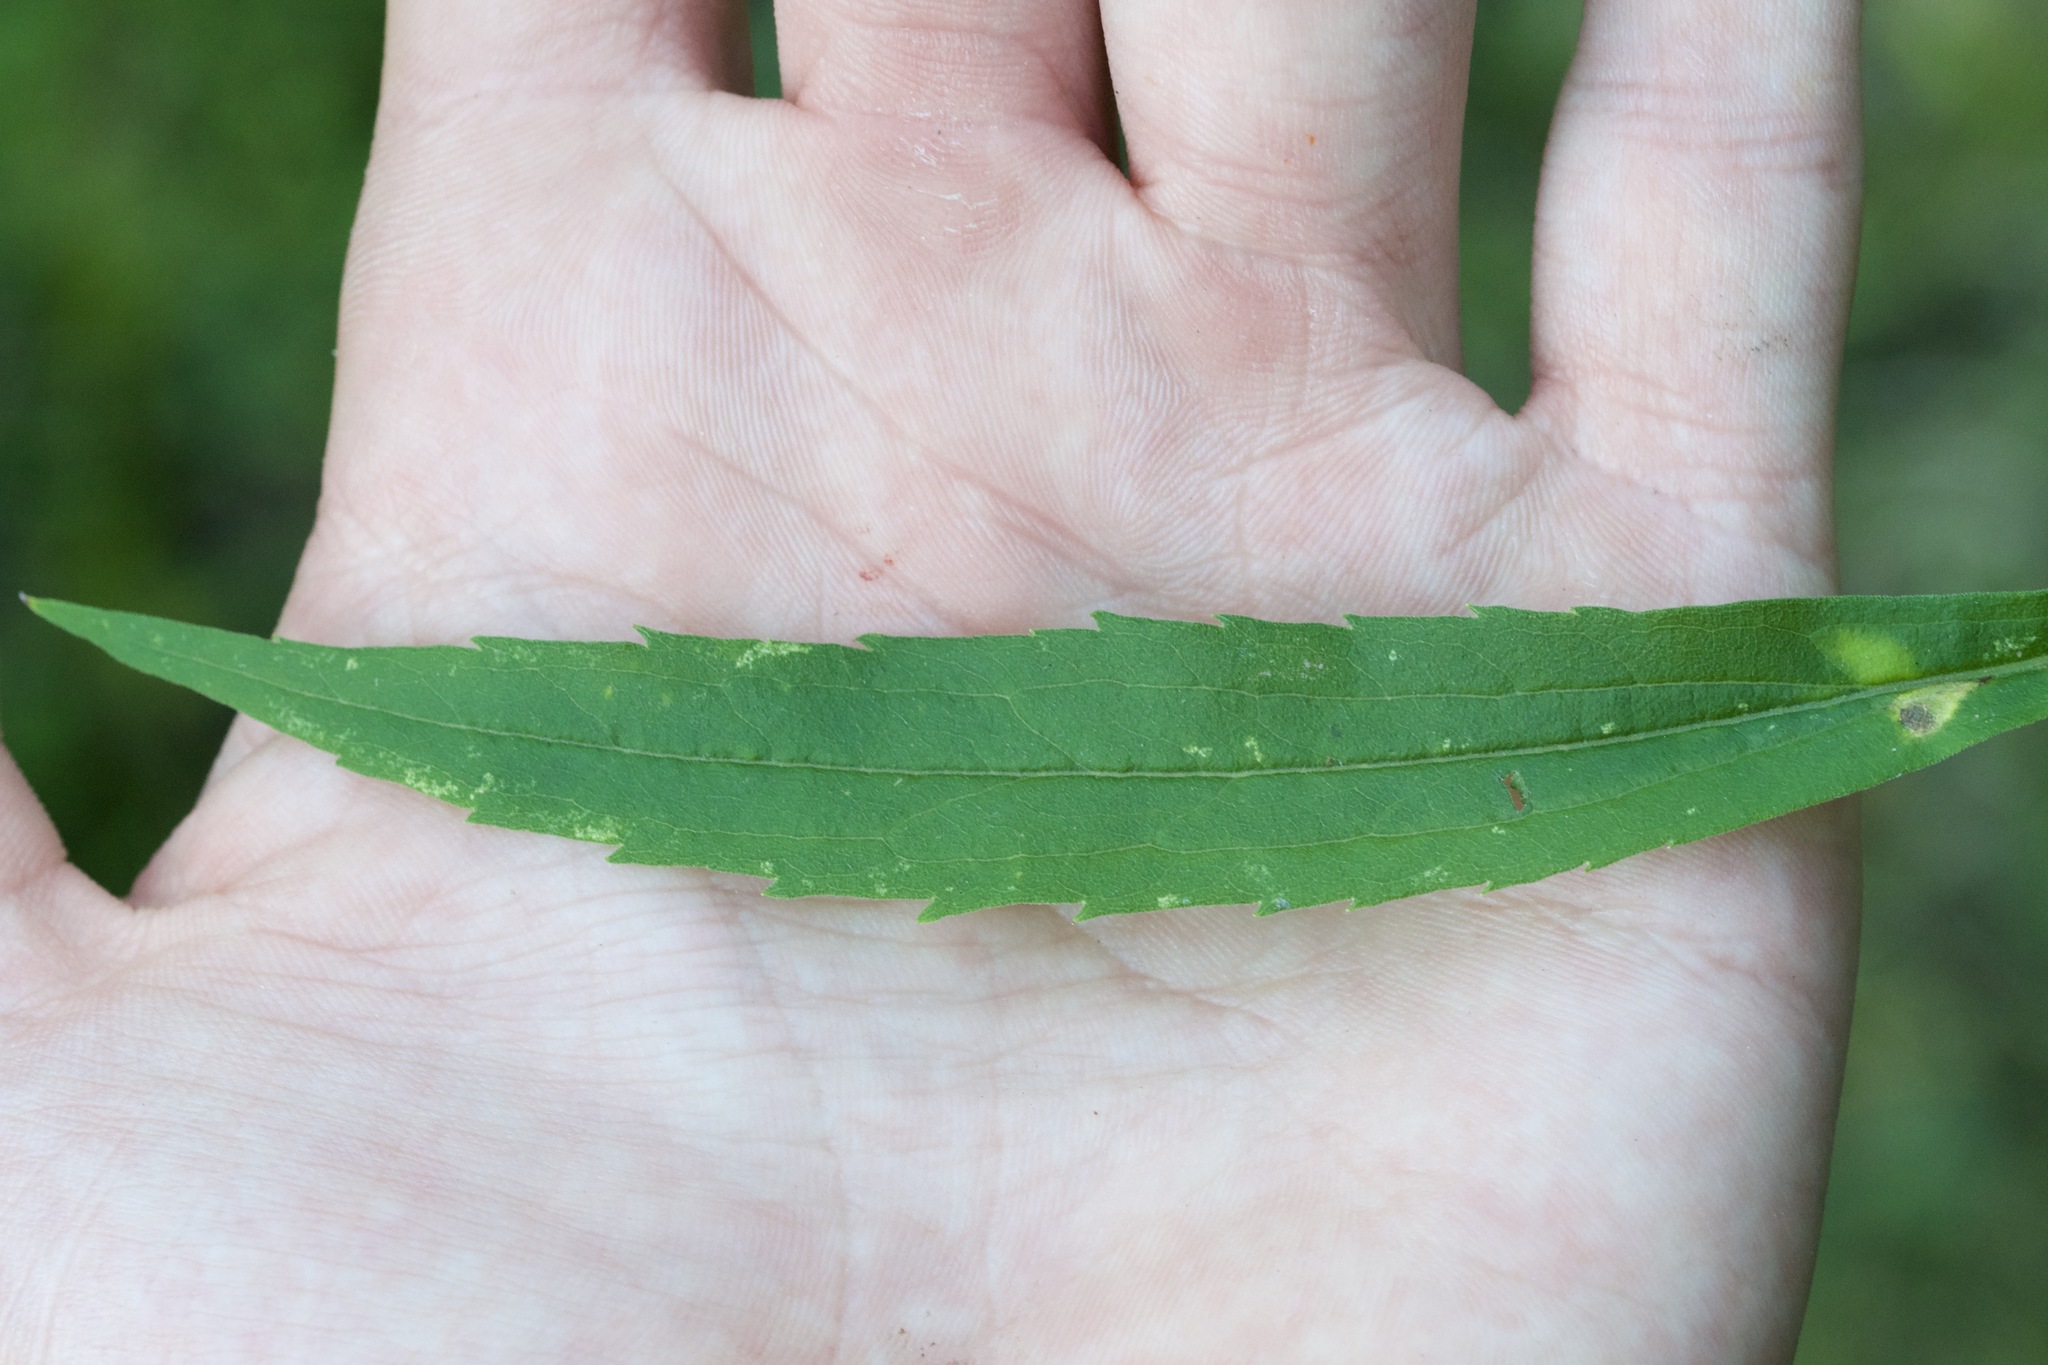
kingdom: Plantae
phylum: Tracheophyta
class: Magnoliopsida
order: Asterales
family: Asteraceae
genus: Solidago
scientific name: Solidago canadensis
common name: Canada goldenrod
